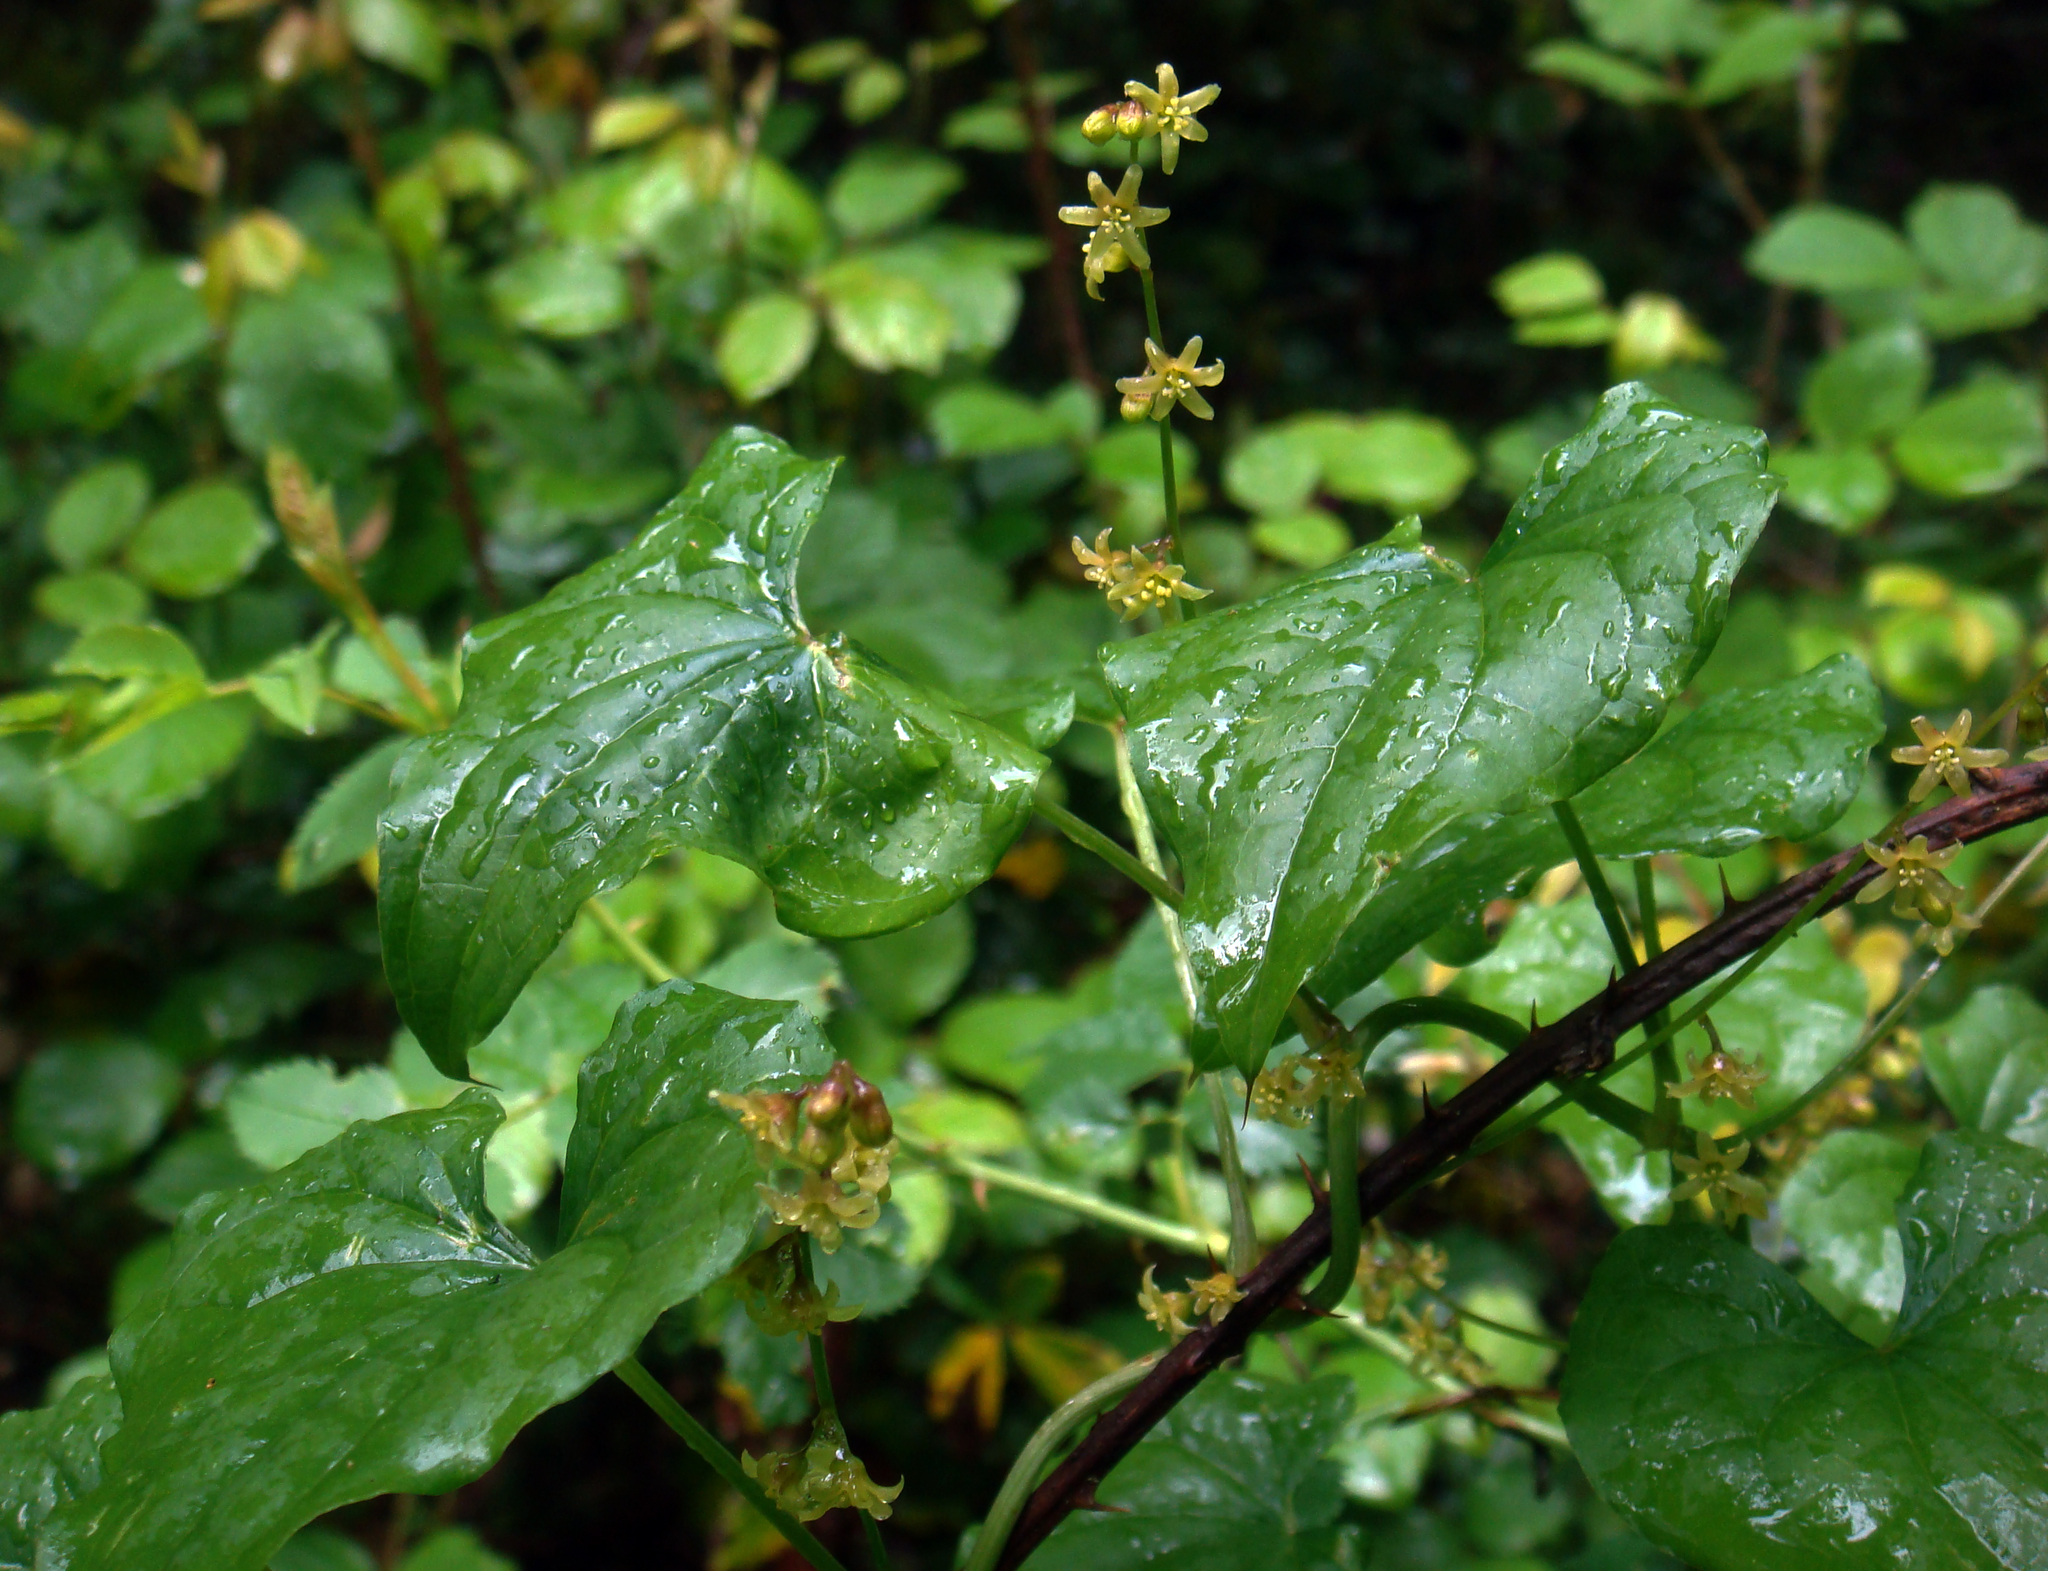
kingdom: Plantae
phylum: Tracheophyta
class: Liliopsida
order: Dioscoreales
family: Dioscoreaceae
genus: Dioscorea
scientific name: Dioscorea communis
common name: Black-bindweed
